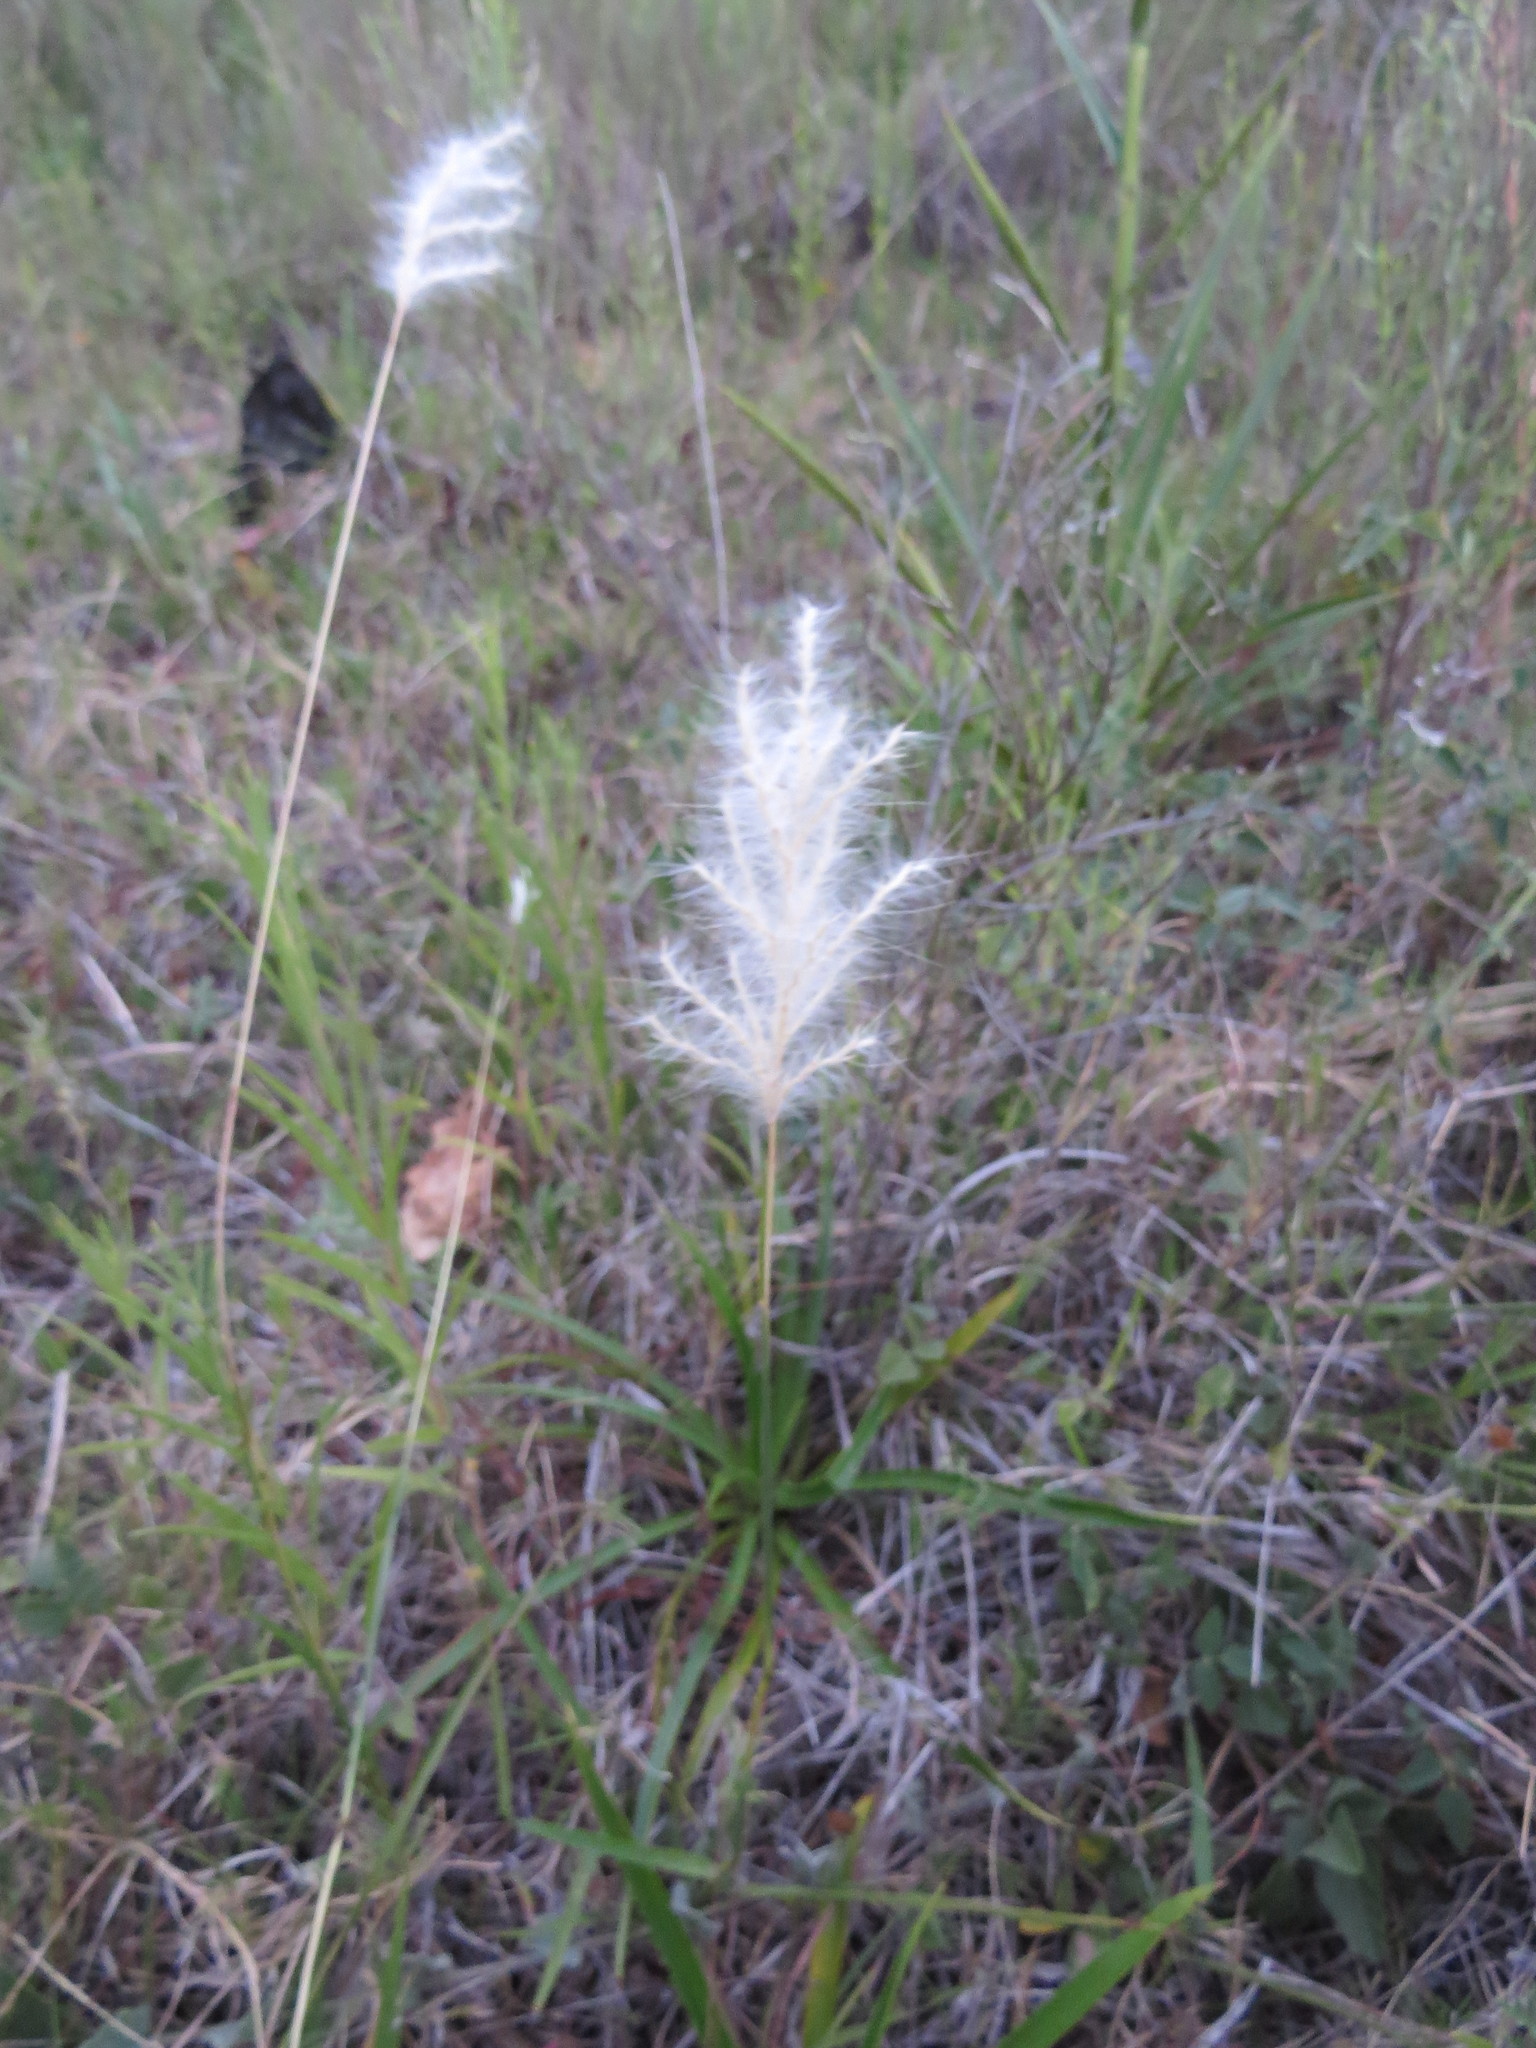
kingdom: Plantae
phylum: Tracheophyta
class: Liliopsida
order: Poales
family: Poaceae
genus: Bothriochloa
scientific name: Bothriochloa laguroides
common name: Silver bluestem
